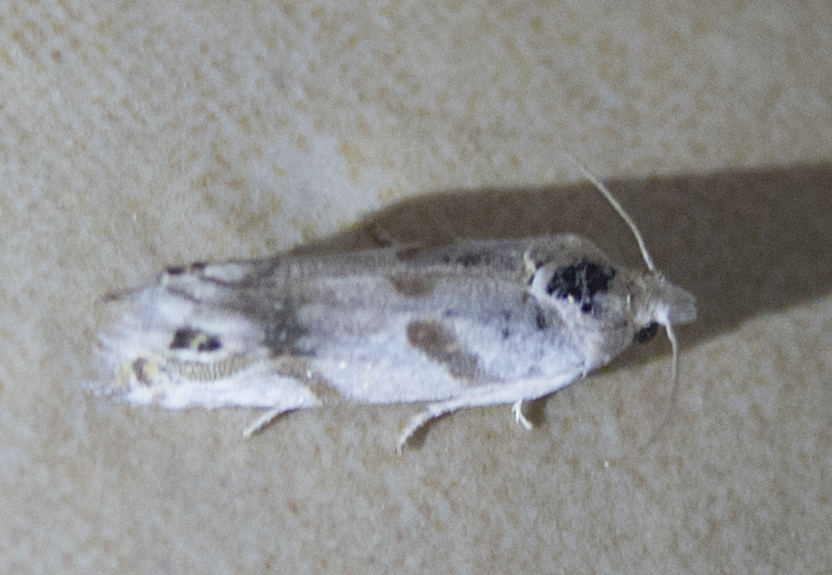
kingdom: Animalia
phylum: Arthropoda
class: Insecta
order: Lepidoptera
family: Tortricidae
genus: Eucosma
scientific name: Eucosma pupillana
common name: Eyed bell
